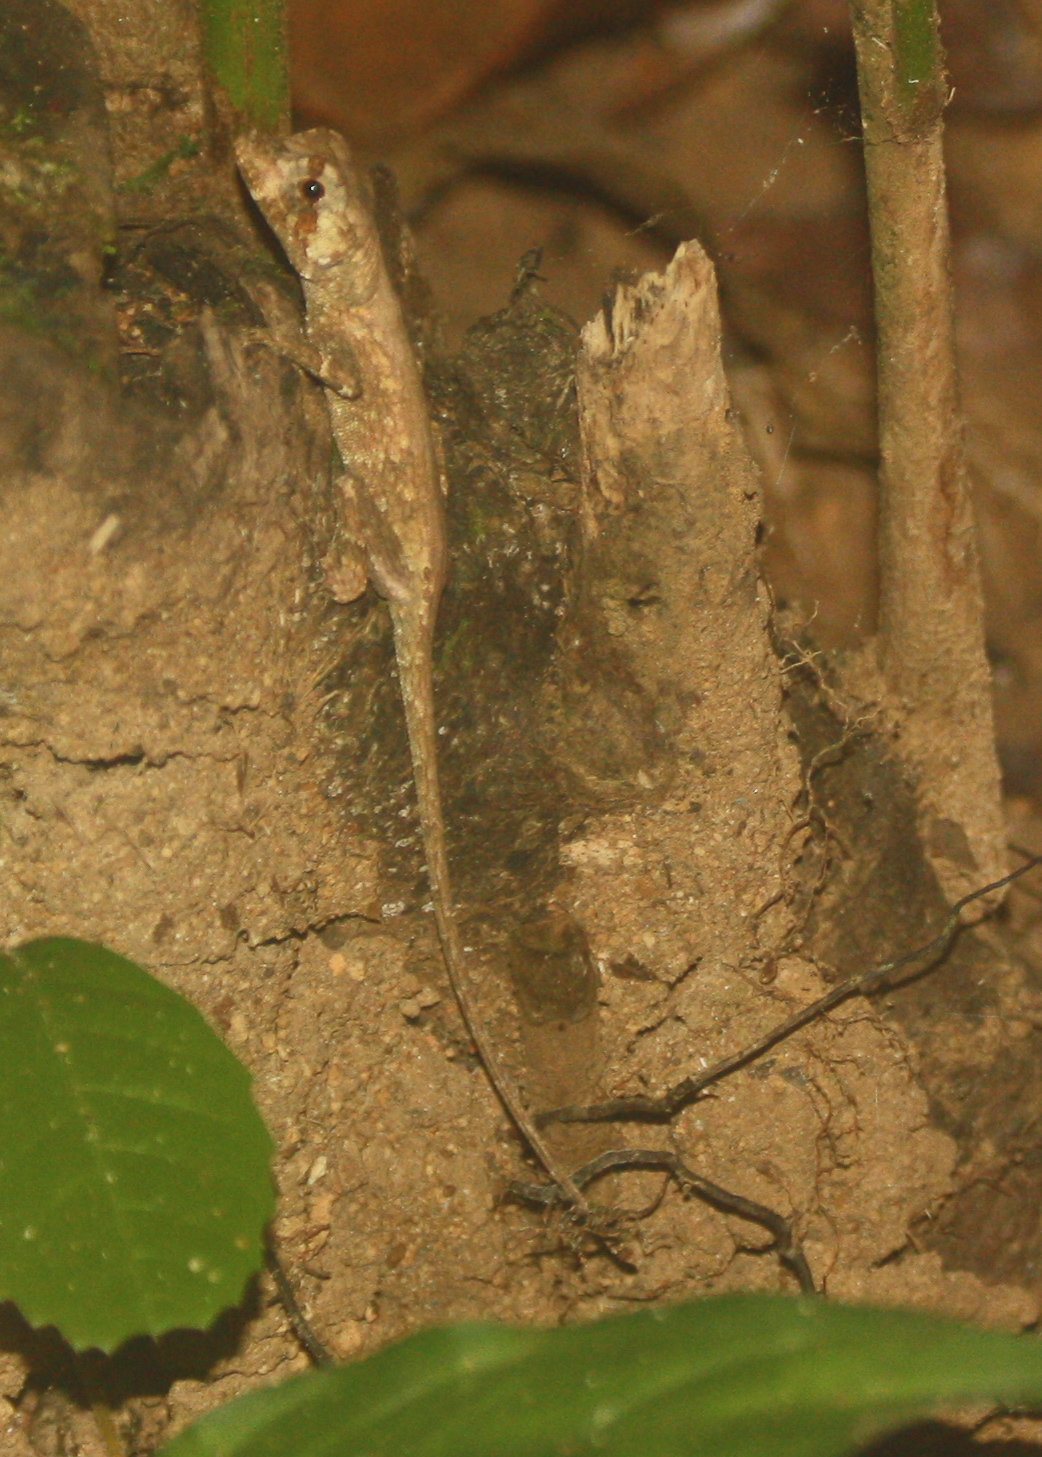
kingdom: Animalia
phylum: Chordata
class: Squamata
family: Dactyloidae
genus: Anolis
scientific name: Anolis capito
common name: Bighead anole
